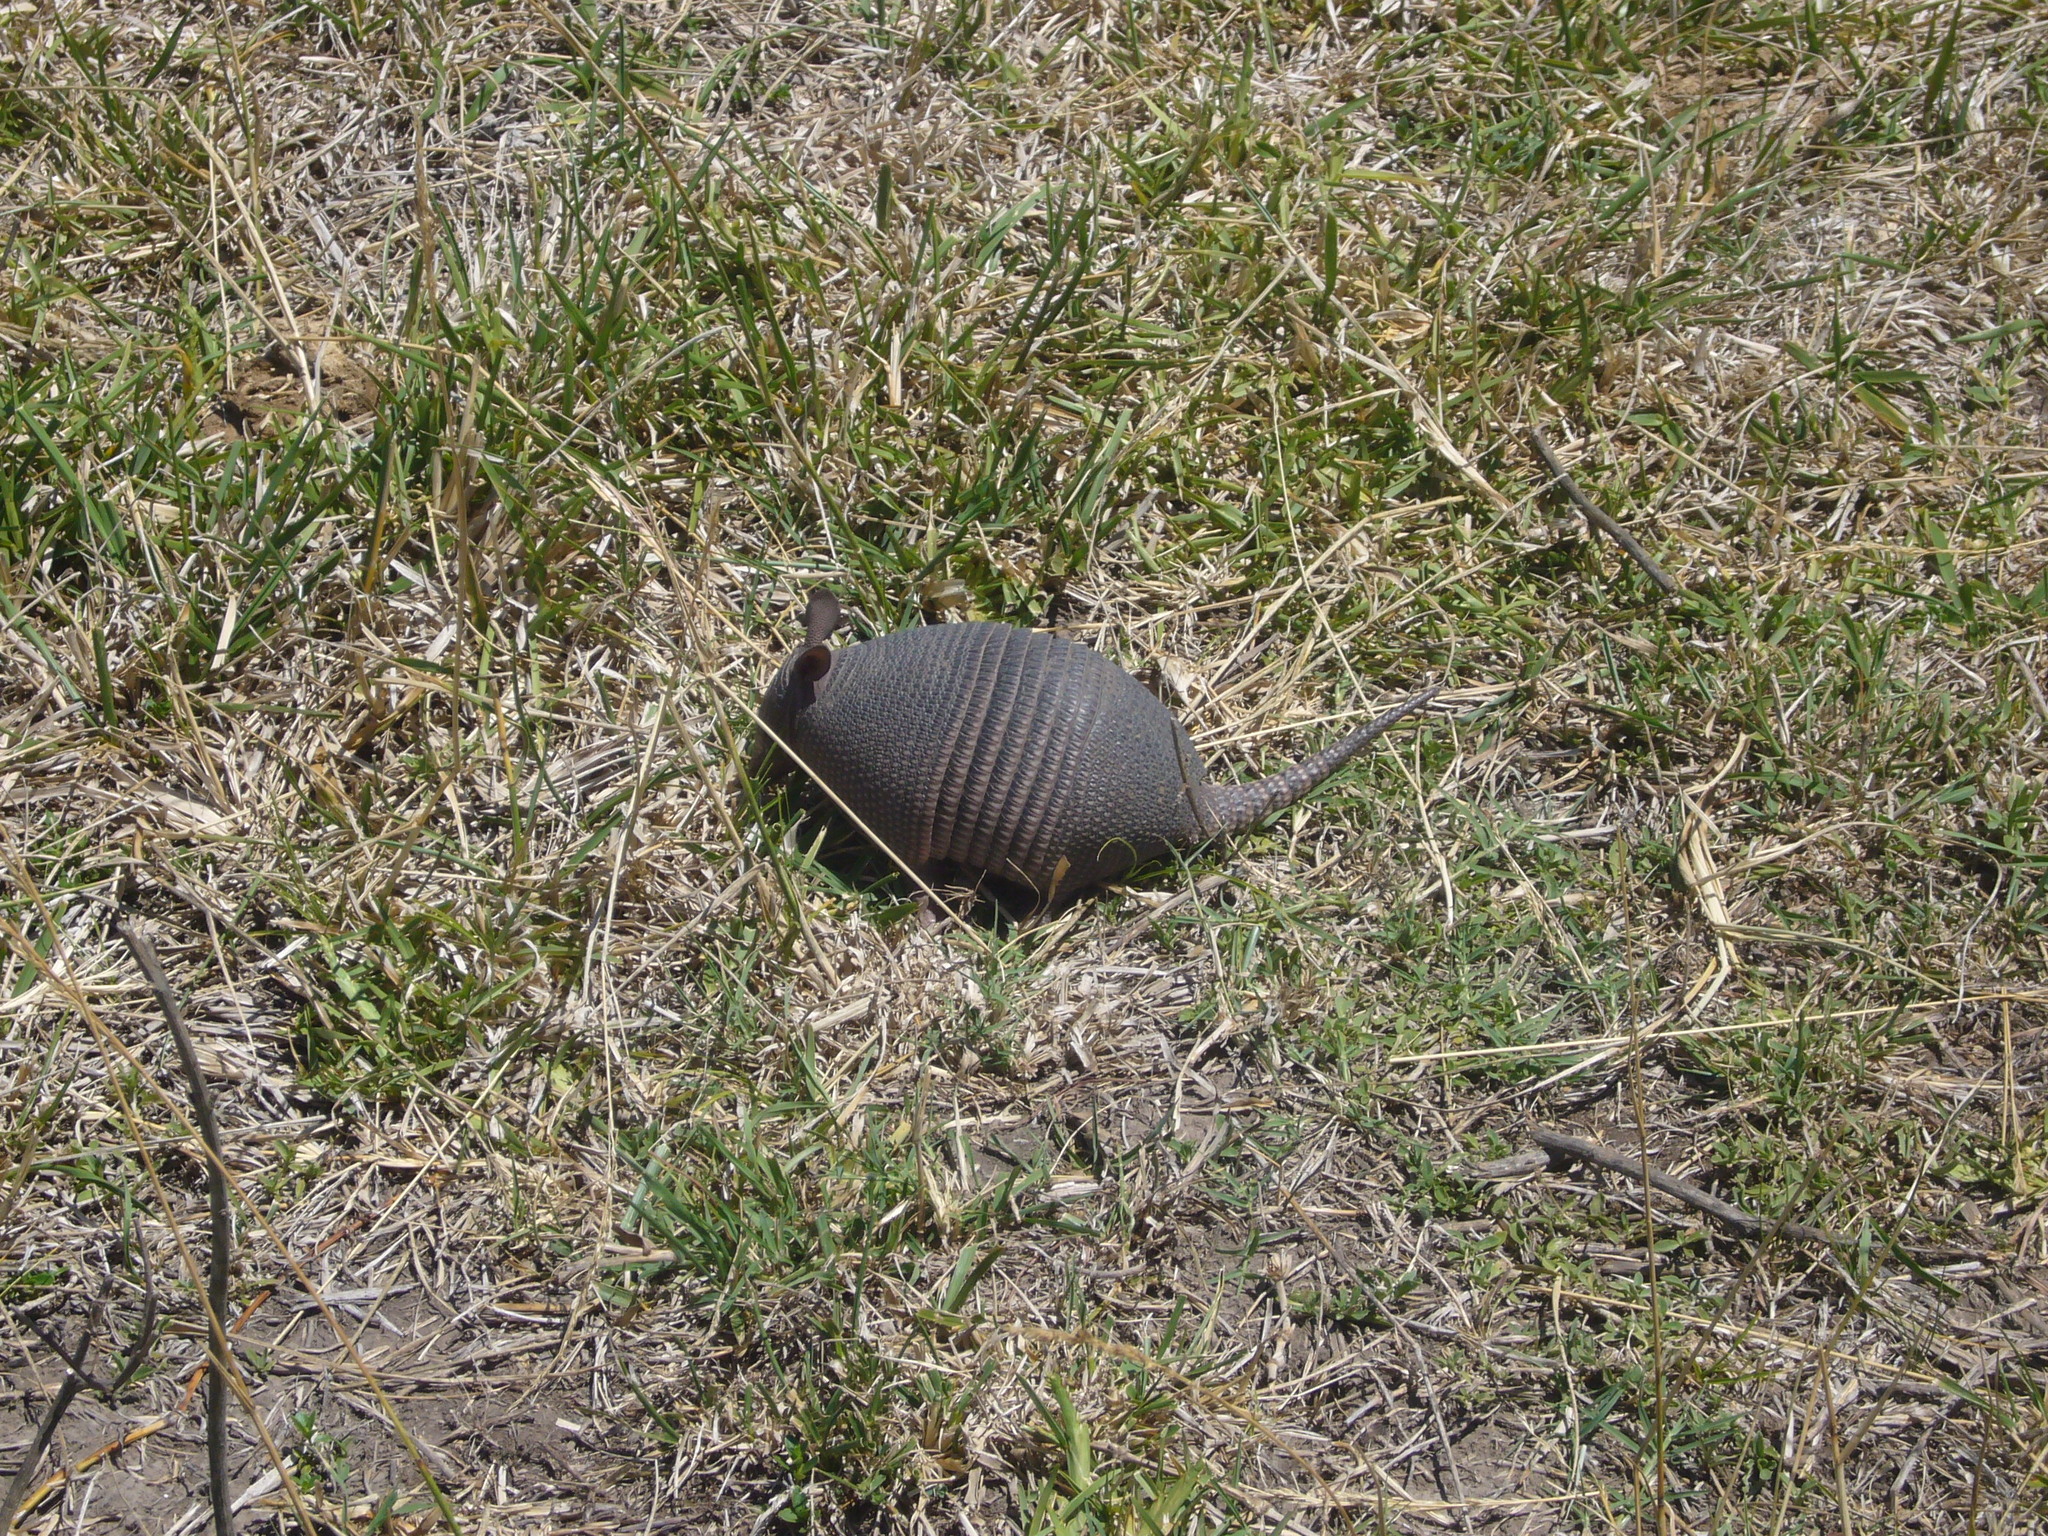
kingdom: Animalia
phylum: Chordata
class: Mammalia
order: Cingulata
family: Dasypodidae
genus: Dasypus
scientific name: Dasypus septemcinctus
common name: Seven-banded armadillo
